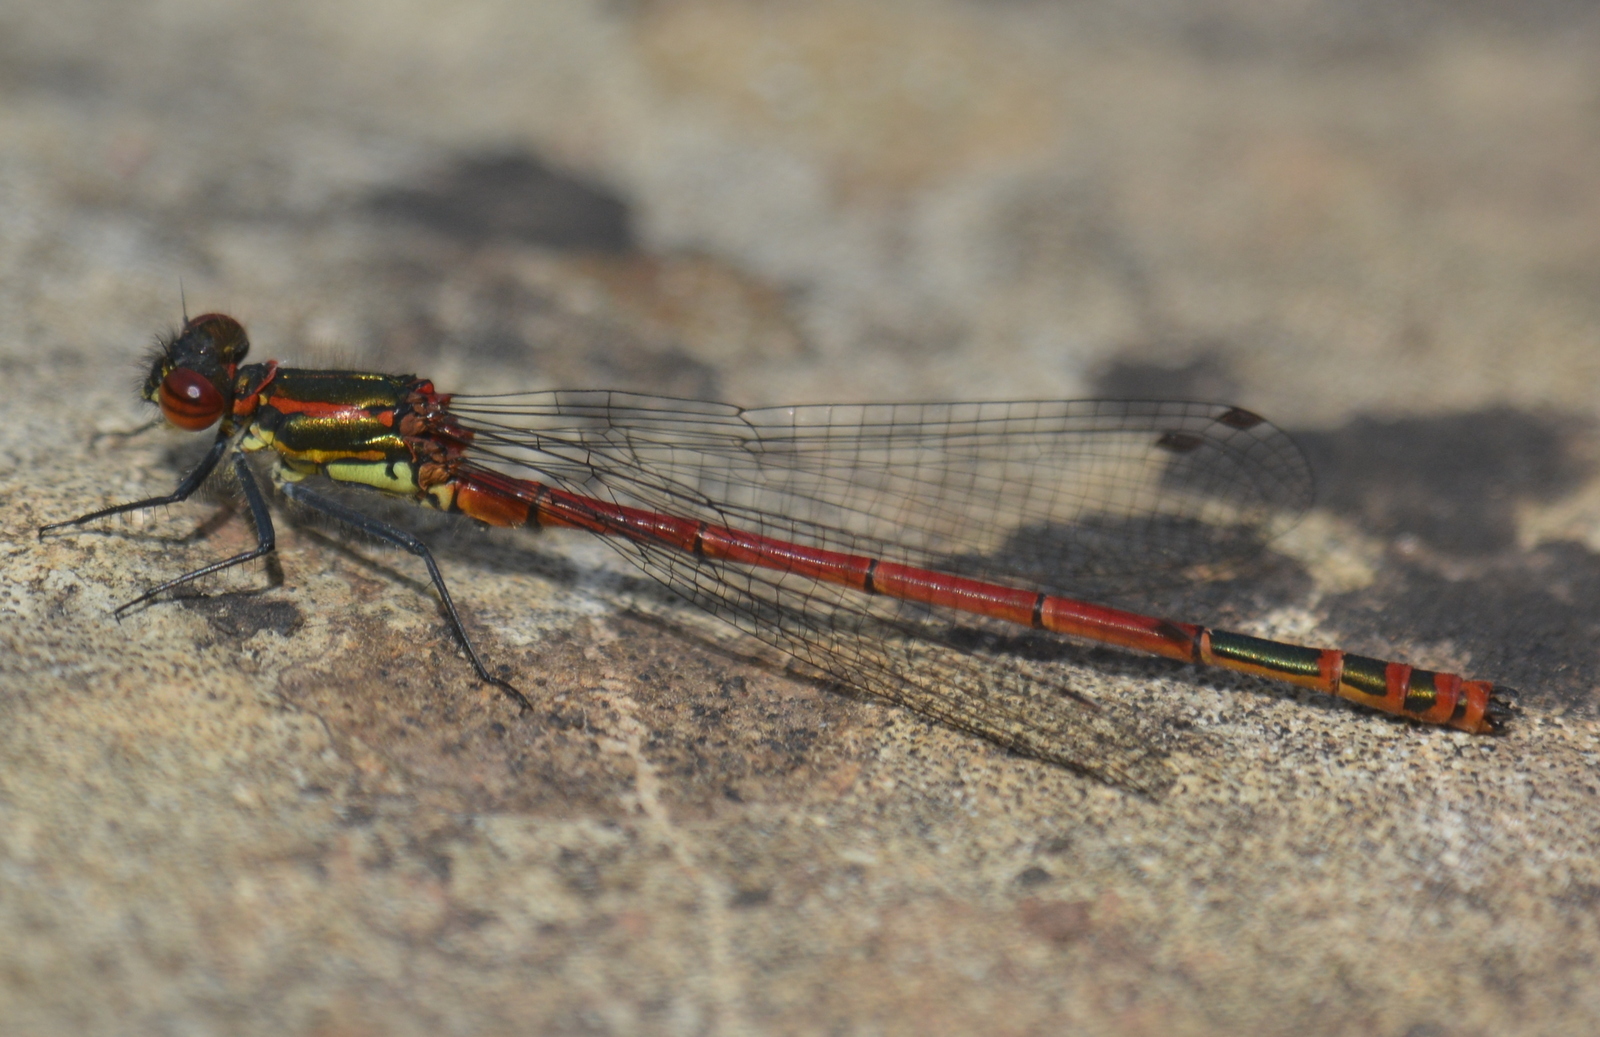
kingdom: Animalia
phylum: Arthropoda
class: Insecta
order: Odonata
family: Coenagrionidae
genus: Pyrrhosoma
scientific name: Pyrrhosoma nymphula
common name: Large red damsel
